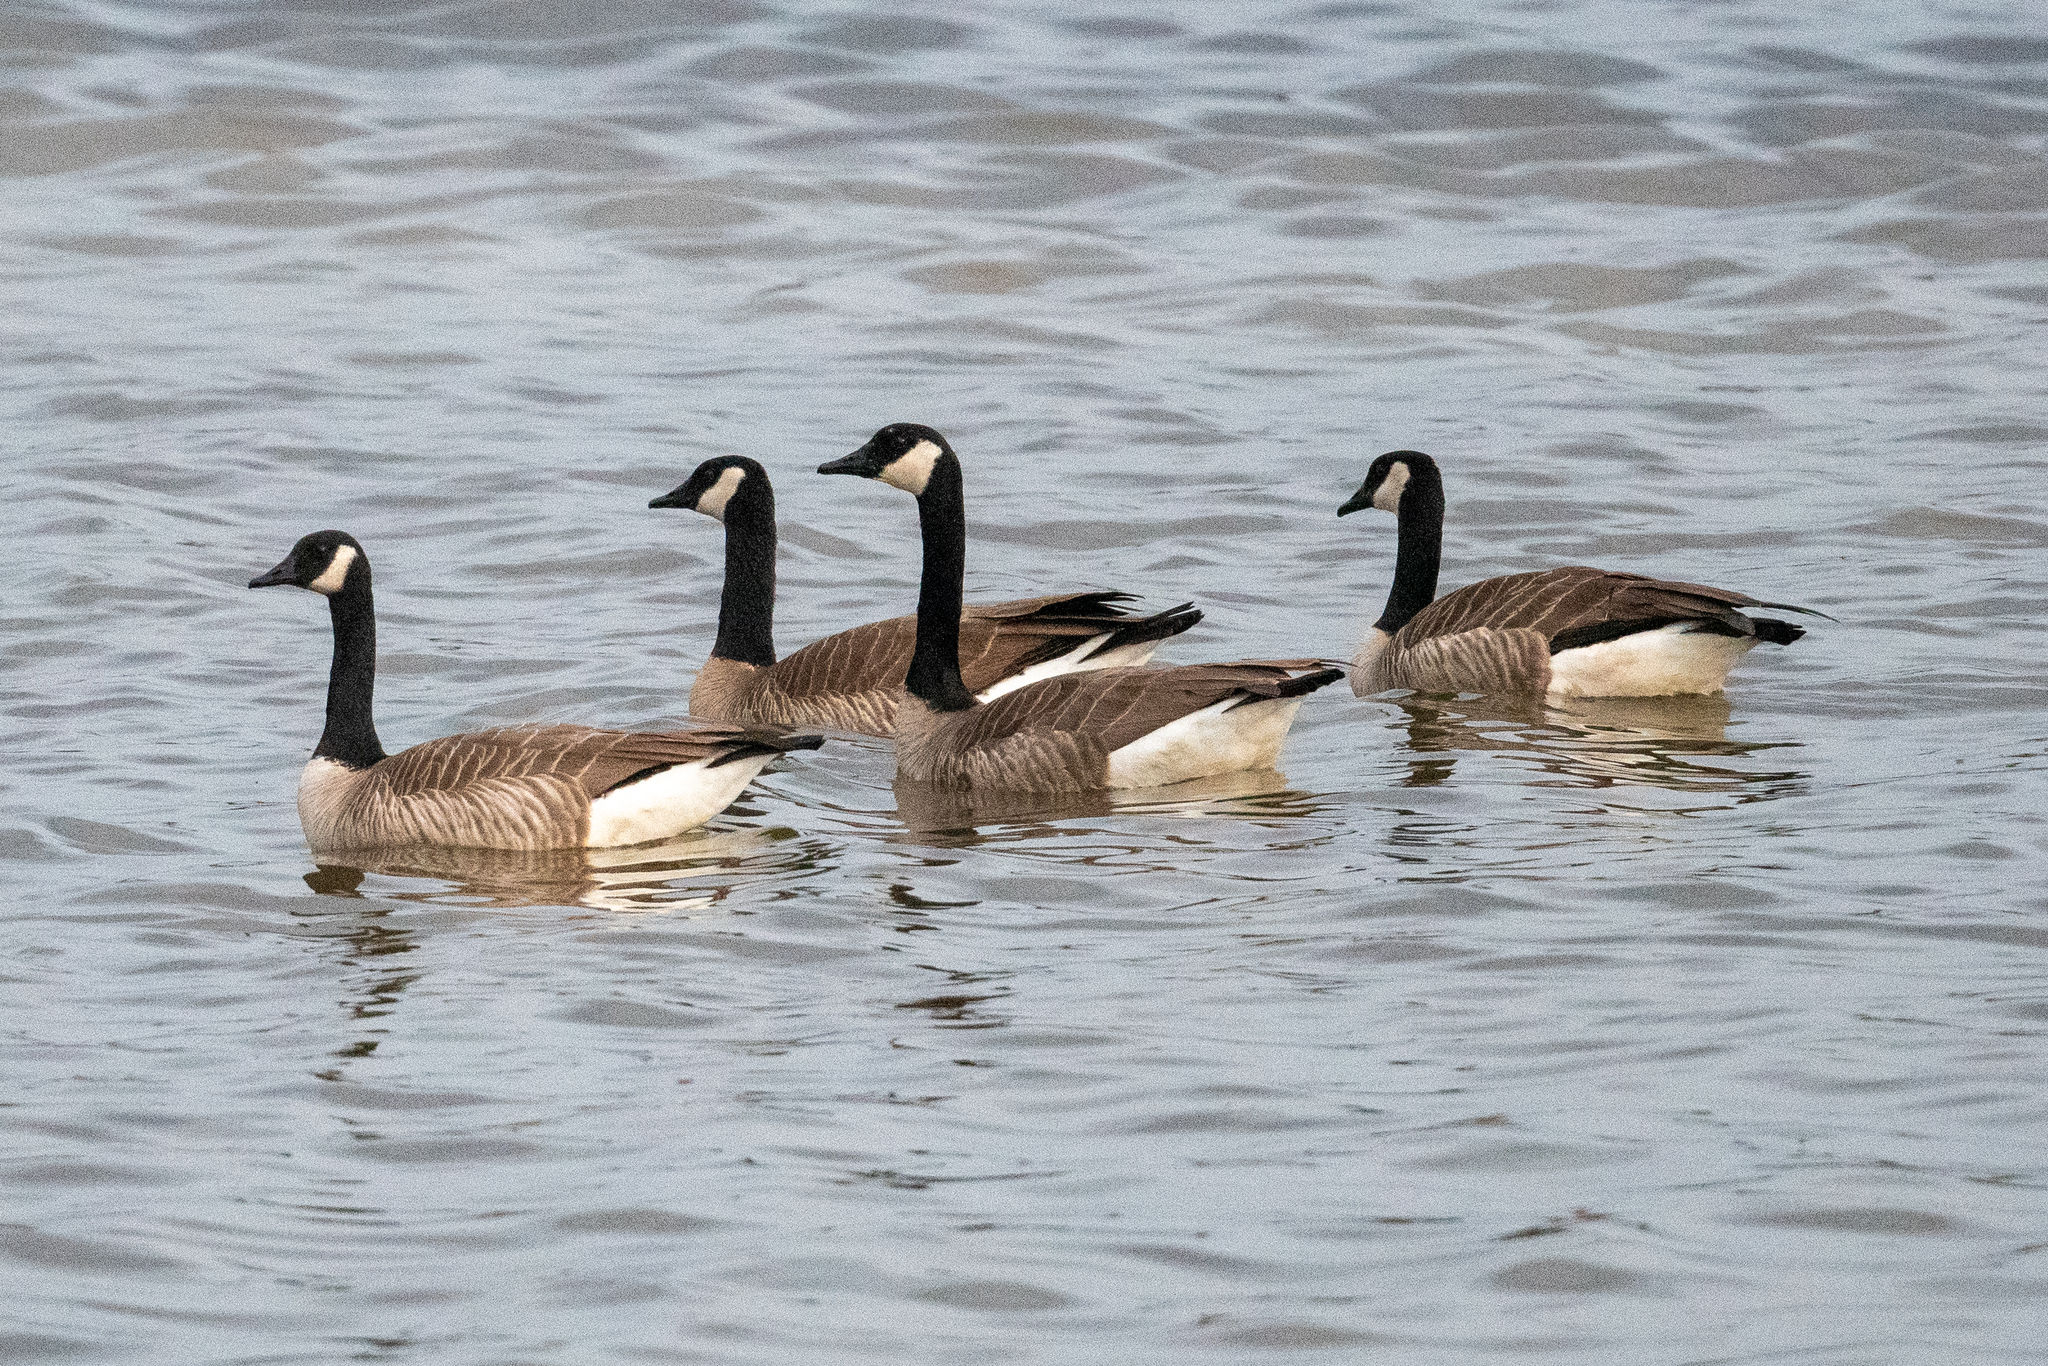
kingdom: Animalia
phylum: Chordata
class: Aves
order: Anseriformes
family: Anatidae
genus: Branta
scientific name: Branta canadensis
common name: Canada goose
